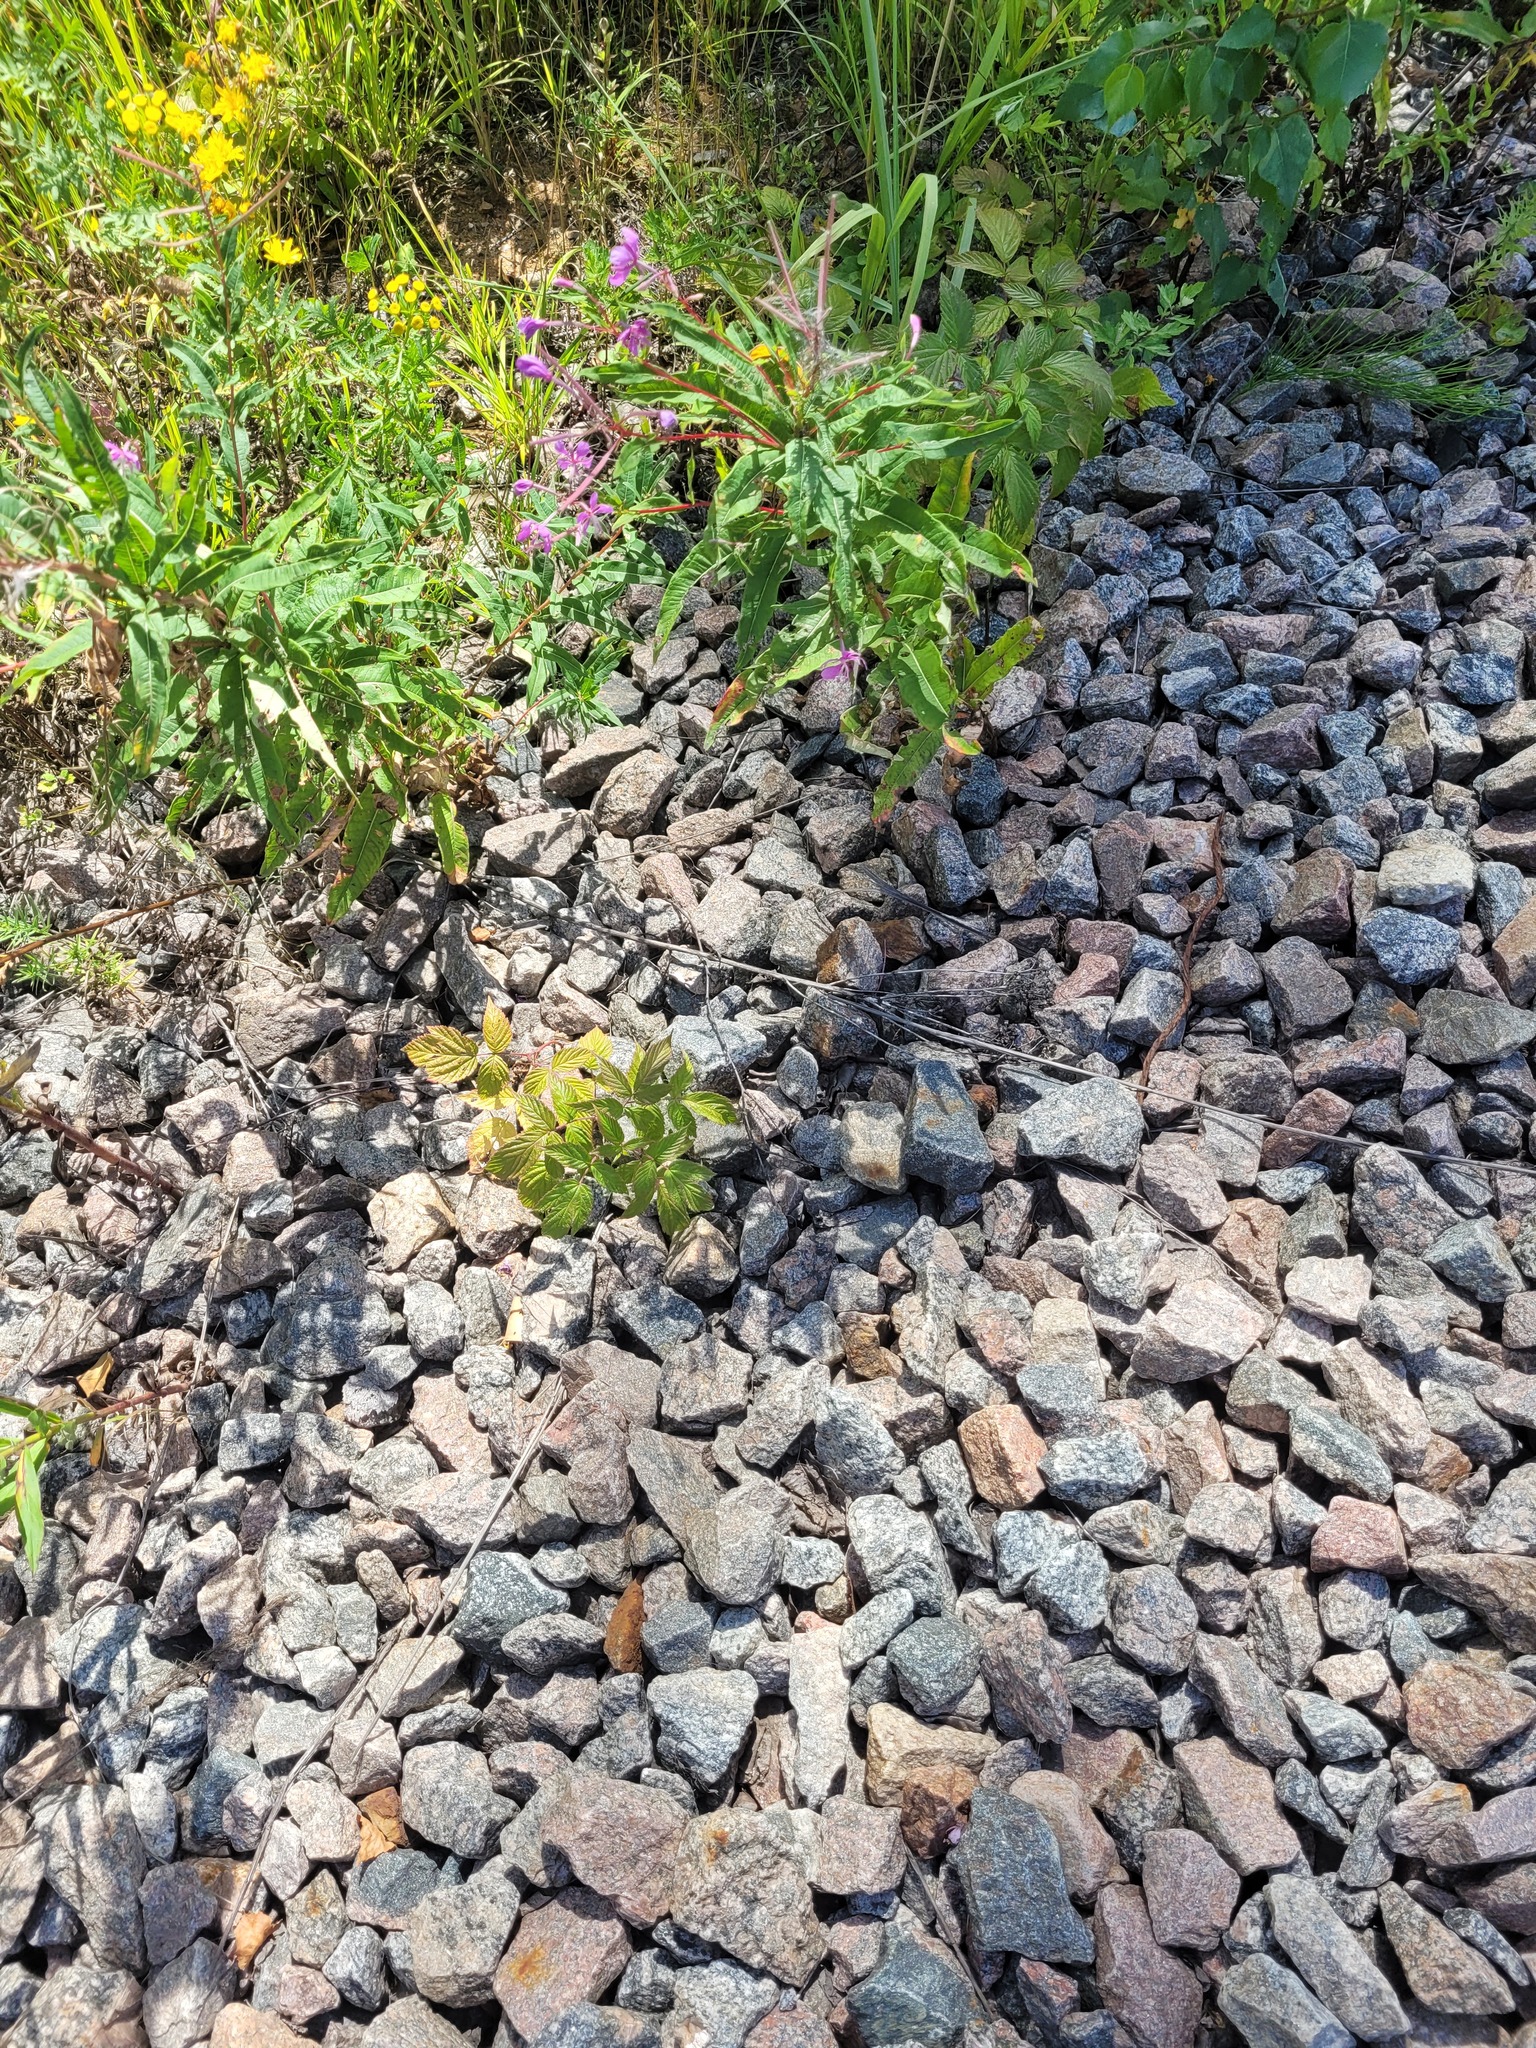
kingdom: Plantae
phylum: Tracheophyta
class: Magnoliopsida
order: Rosales
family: Rosaceae
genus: Rubus
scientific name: Rubus idaeus
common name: Raspberry
